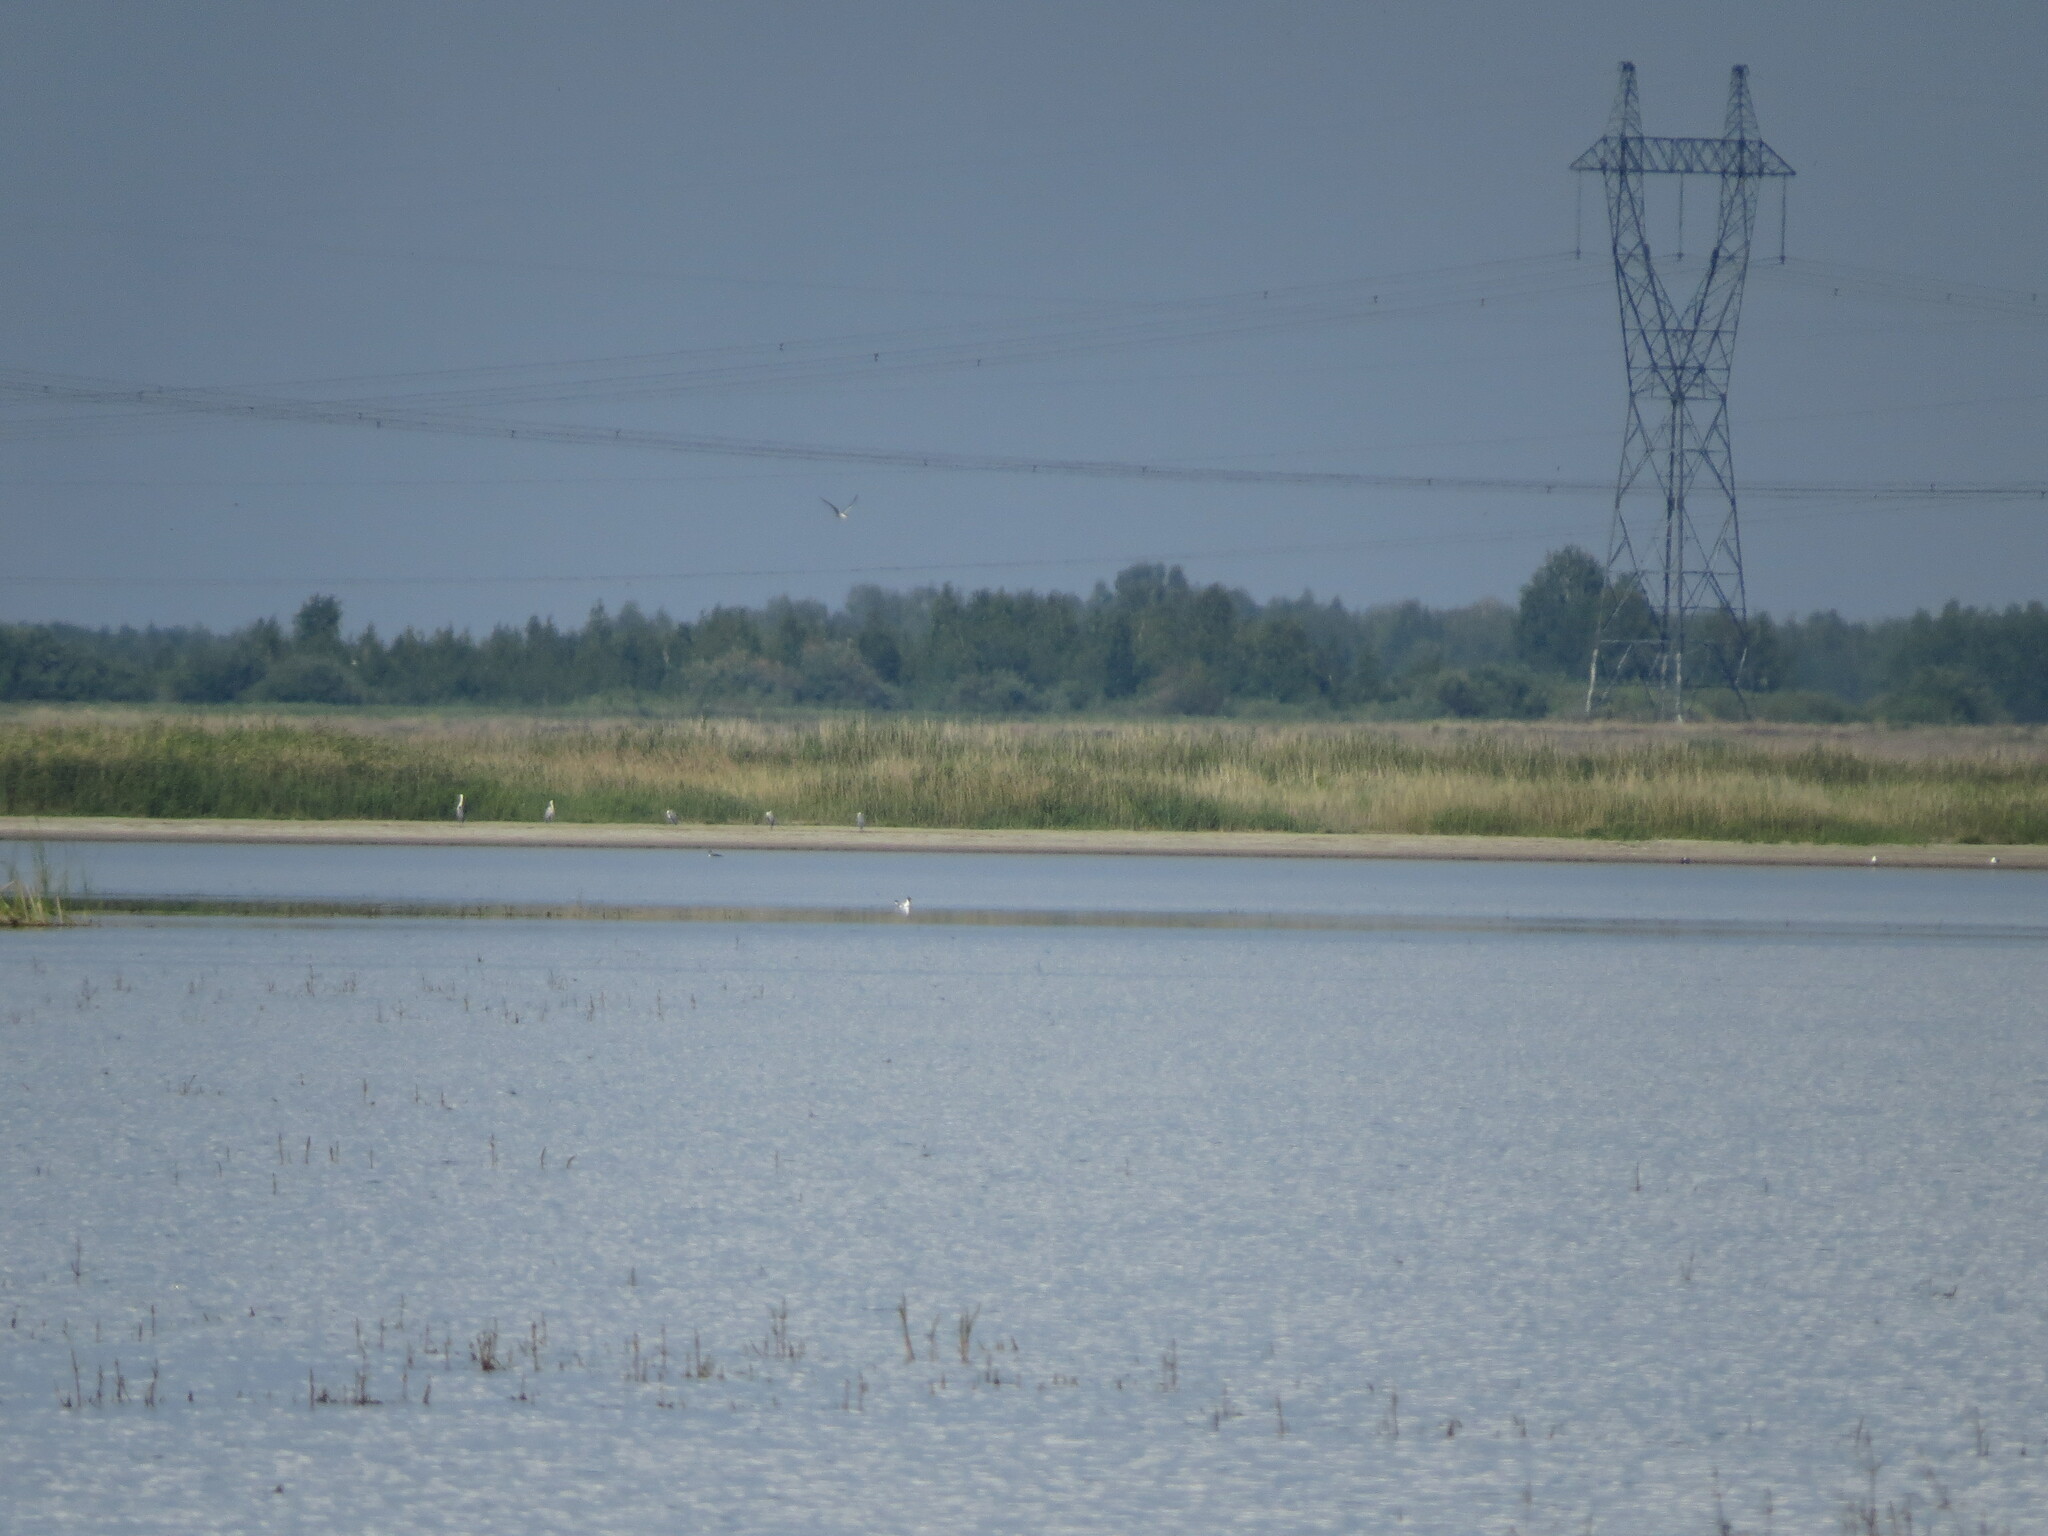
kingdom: Animalia
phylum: Chordata
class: Aves
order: Pelecaniformes
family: Ardeidae
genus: Ardea
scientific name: Ardea cinerea
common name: Grey heron
